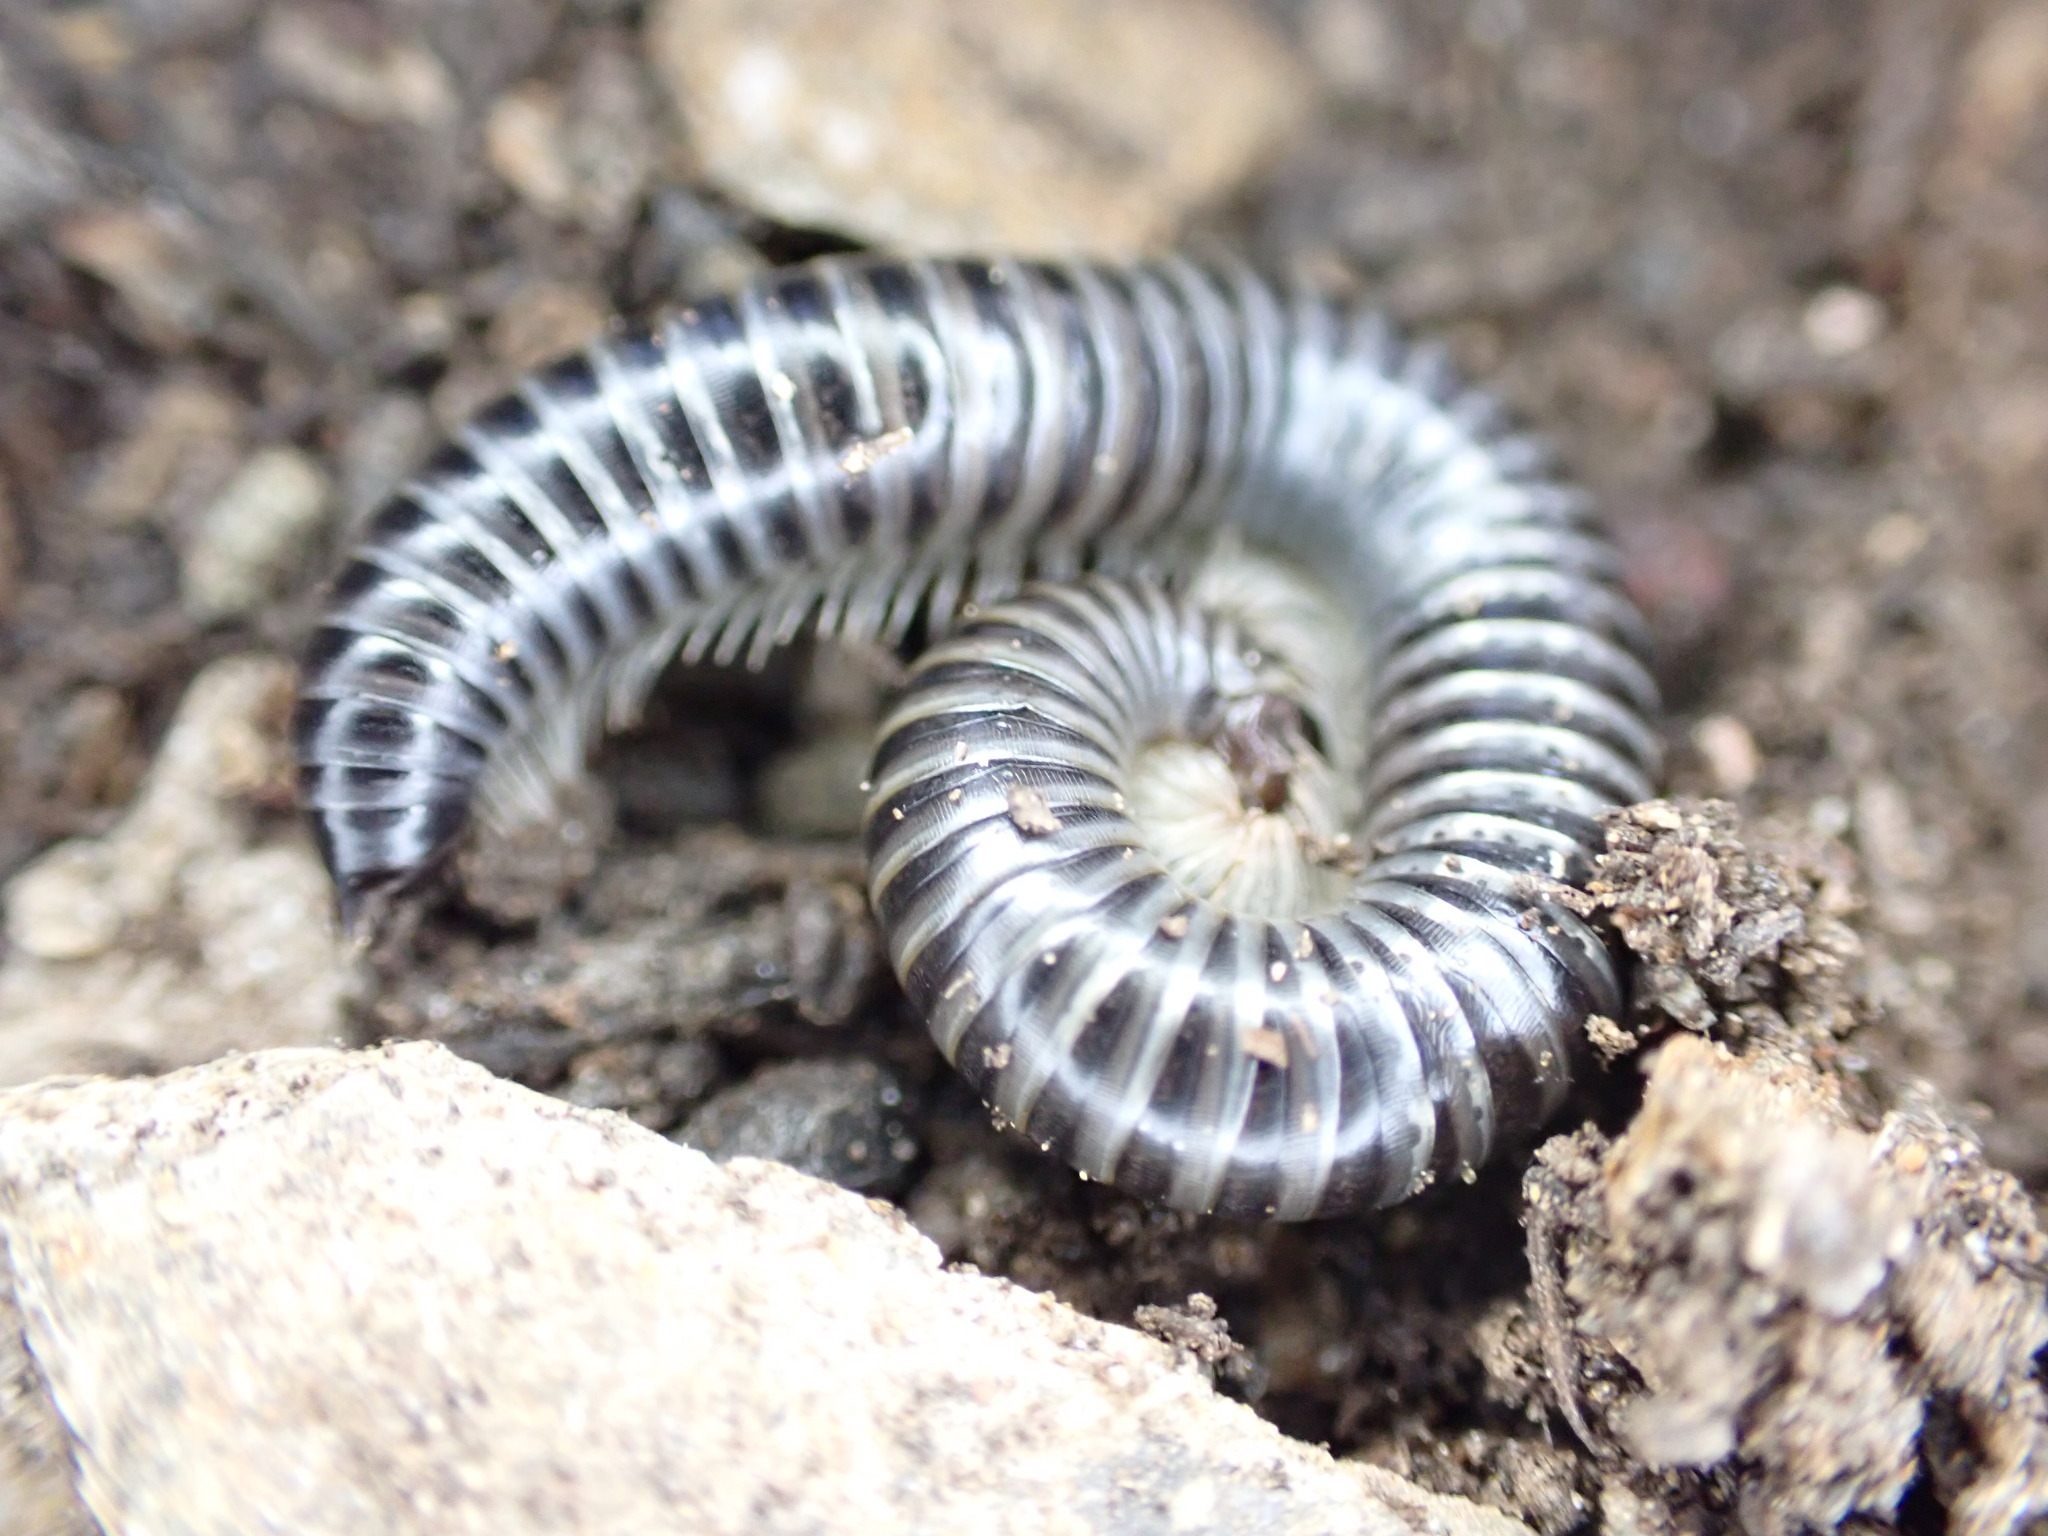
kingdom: Animalia
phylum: Arthropoda
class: Diplopoda
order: Julida
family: Julidae
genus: Ommatoiulus
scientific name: Ommatoiulus sabulosus
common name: Striped millipede
